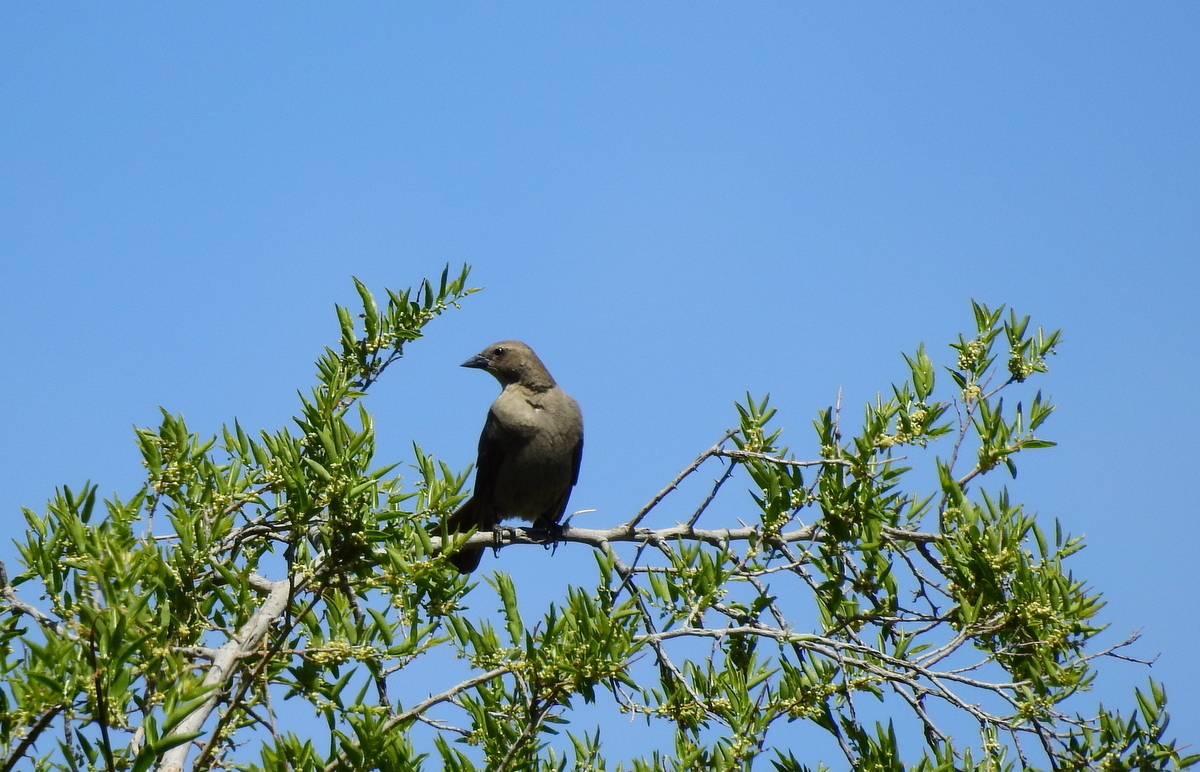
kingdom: Animalia
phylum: Chordata
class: Aves
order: Passeriformes
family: Icteridae
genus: Molothrus
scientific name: Molothrus bonariensis
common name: Shiny cowbird
